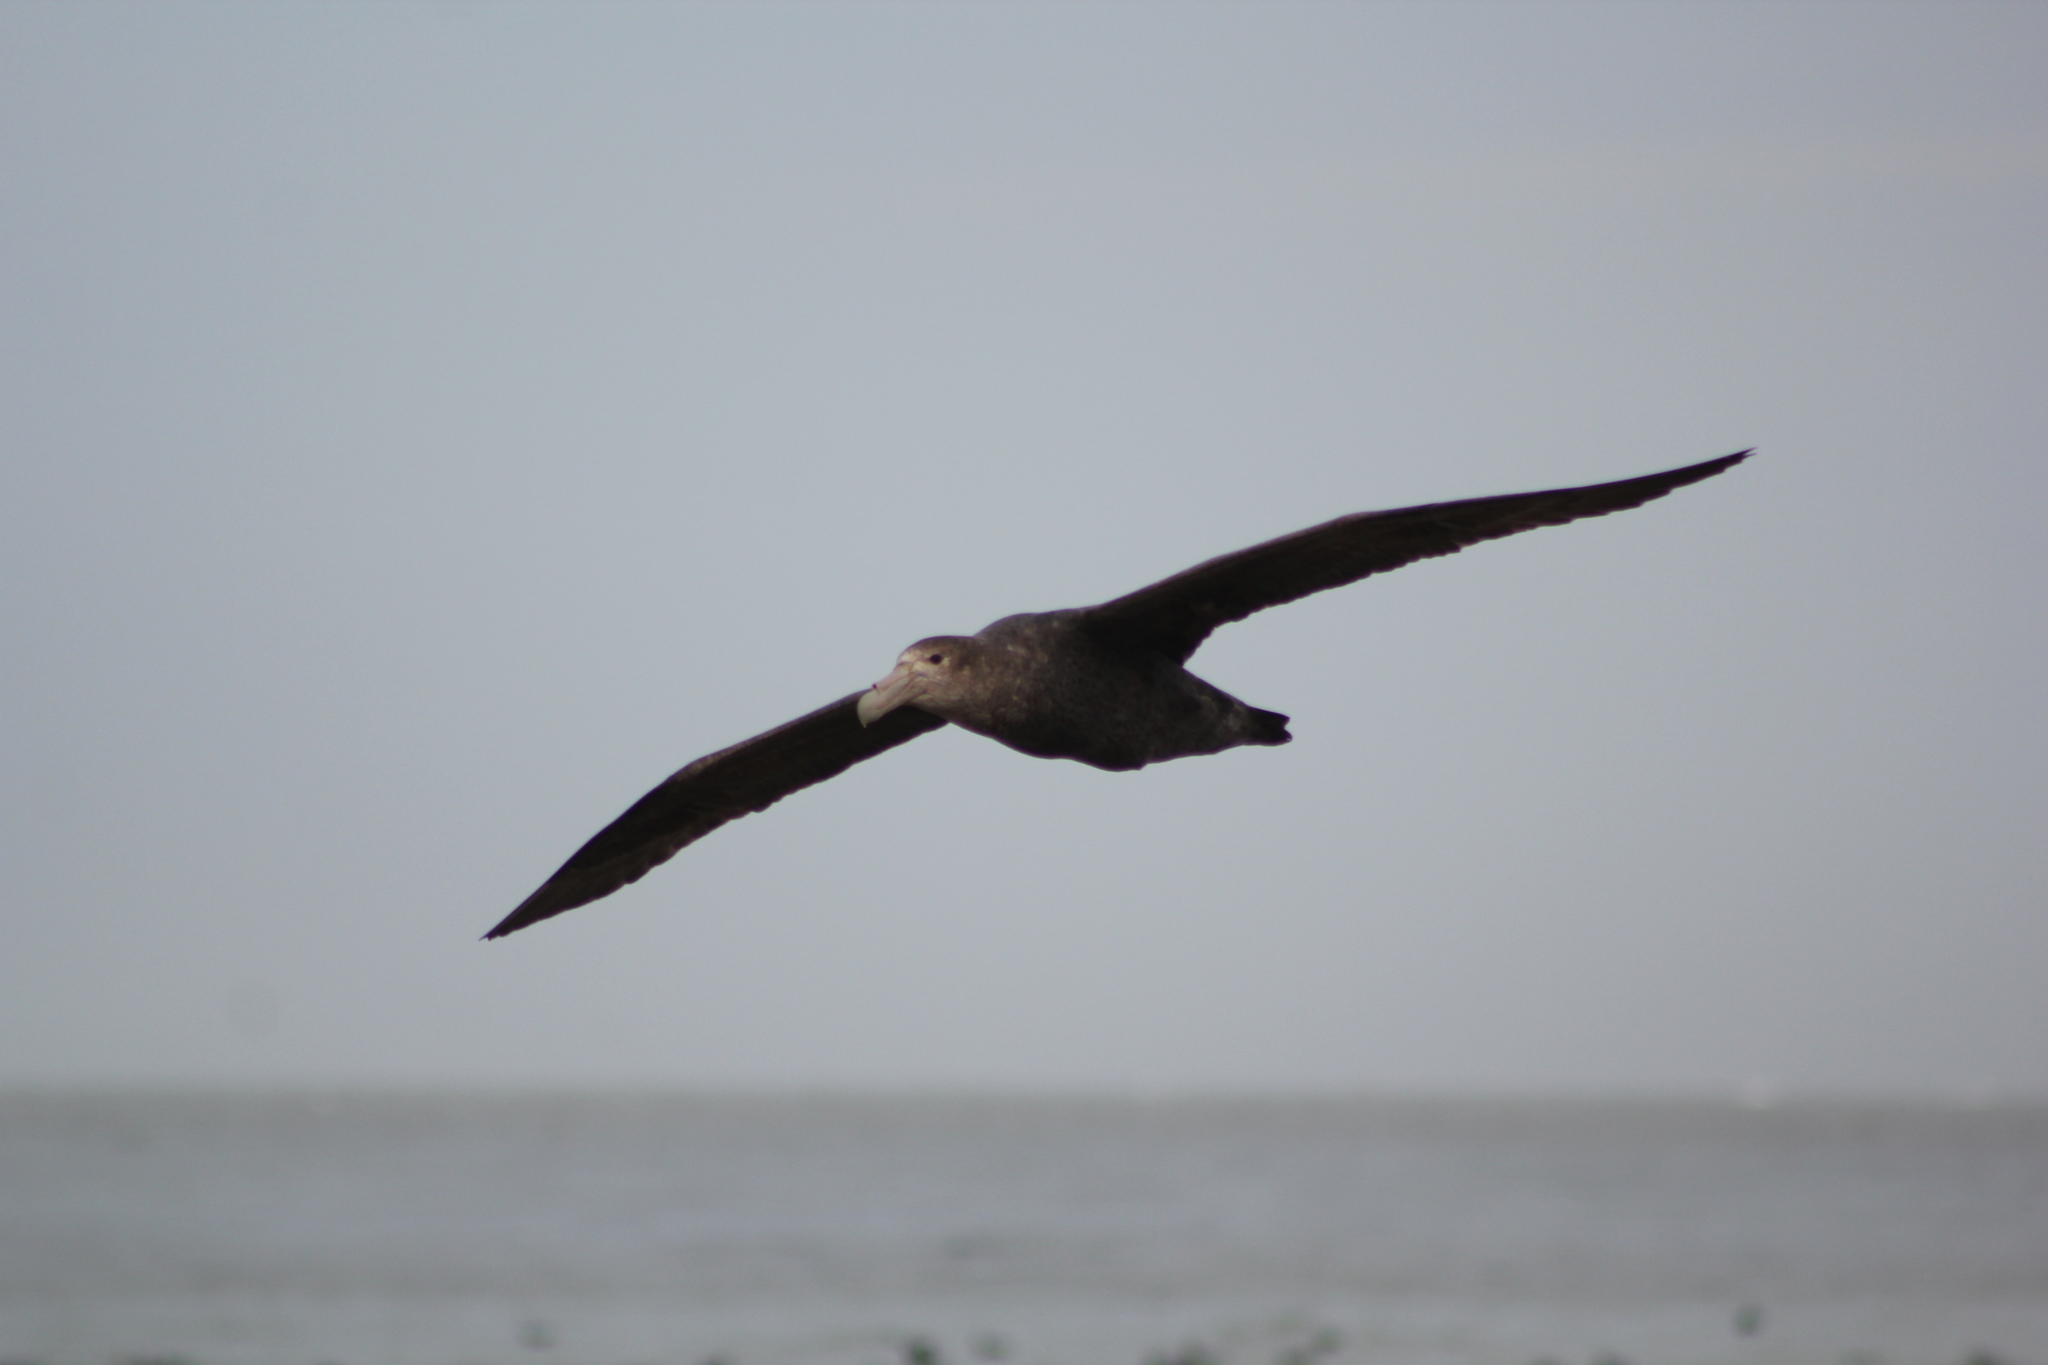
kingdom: Animalia
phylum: Chordata
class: Aves
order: Procellariiformes
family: Procellariidae
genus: Macronectes
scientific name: Macronectes giganteus
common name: Southern giant petrel
